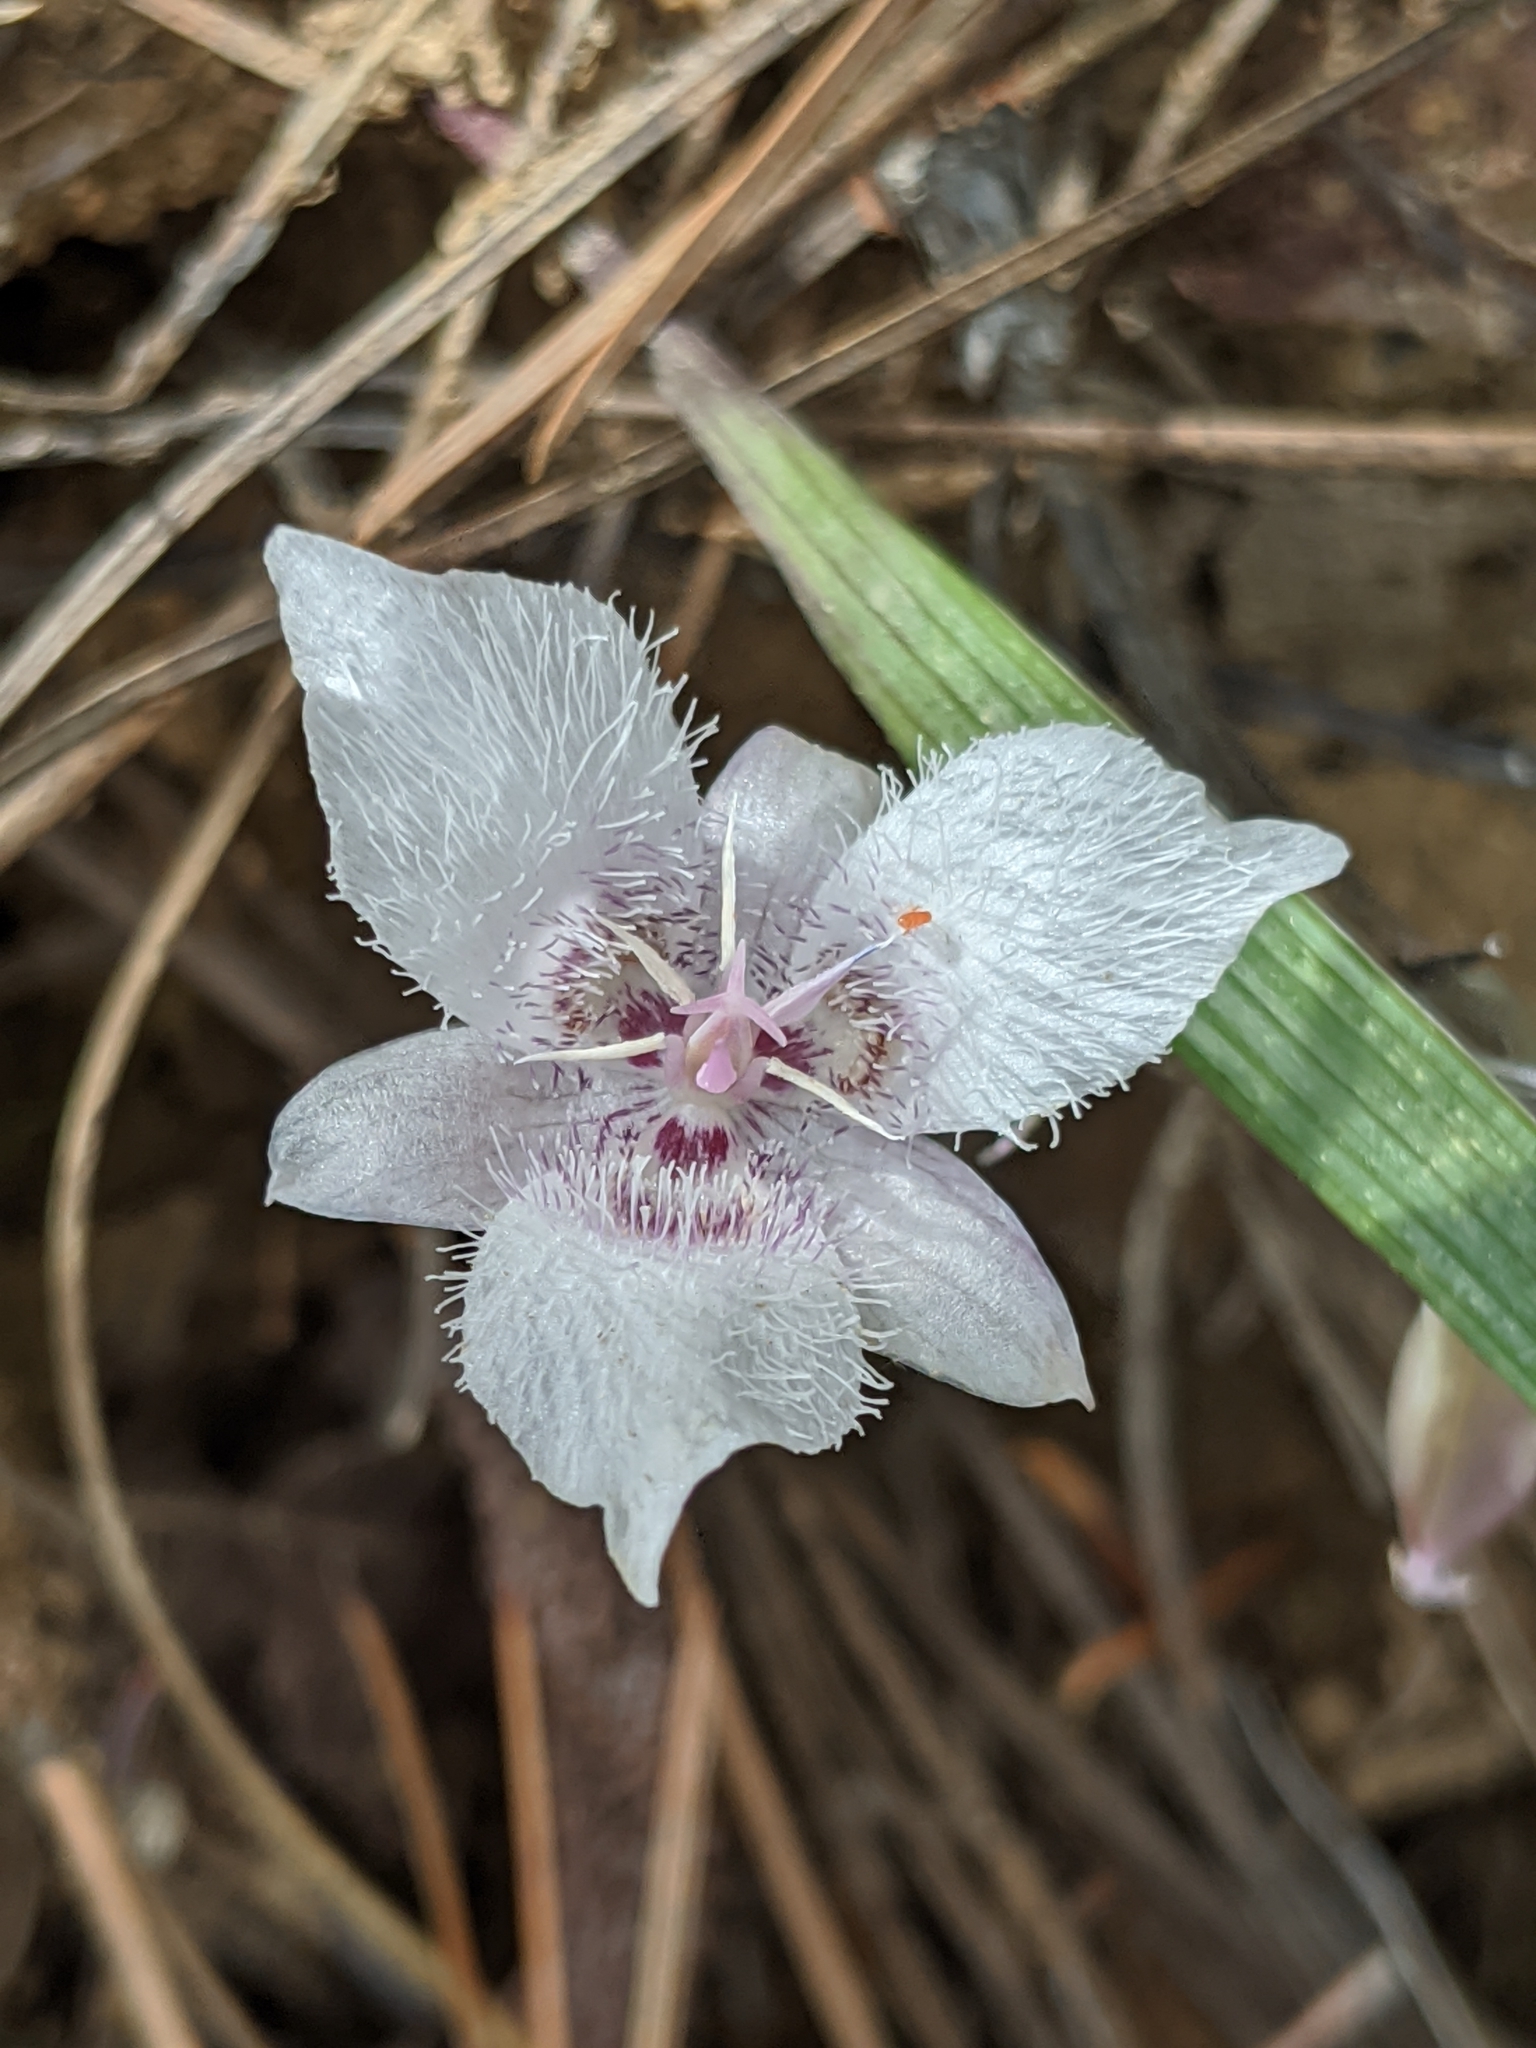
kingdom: Plantae
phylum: Tracheophyta
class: Liliopsida
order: Liliales
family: Liliaceae
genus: Calochortus
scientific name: Calochortus tolmiei
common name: Pussy-ears
